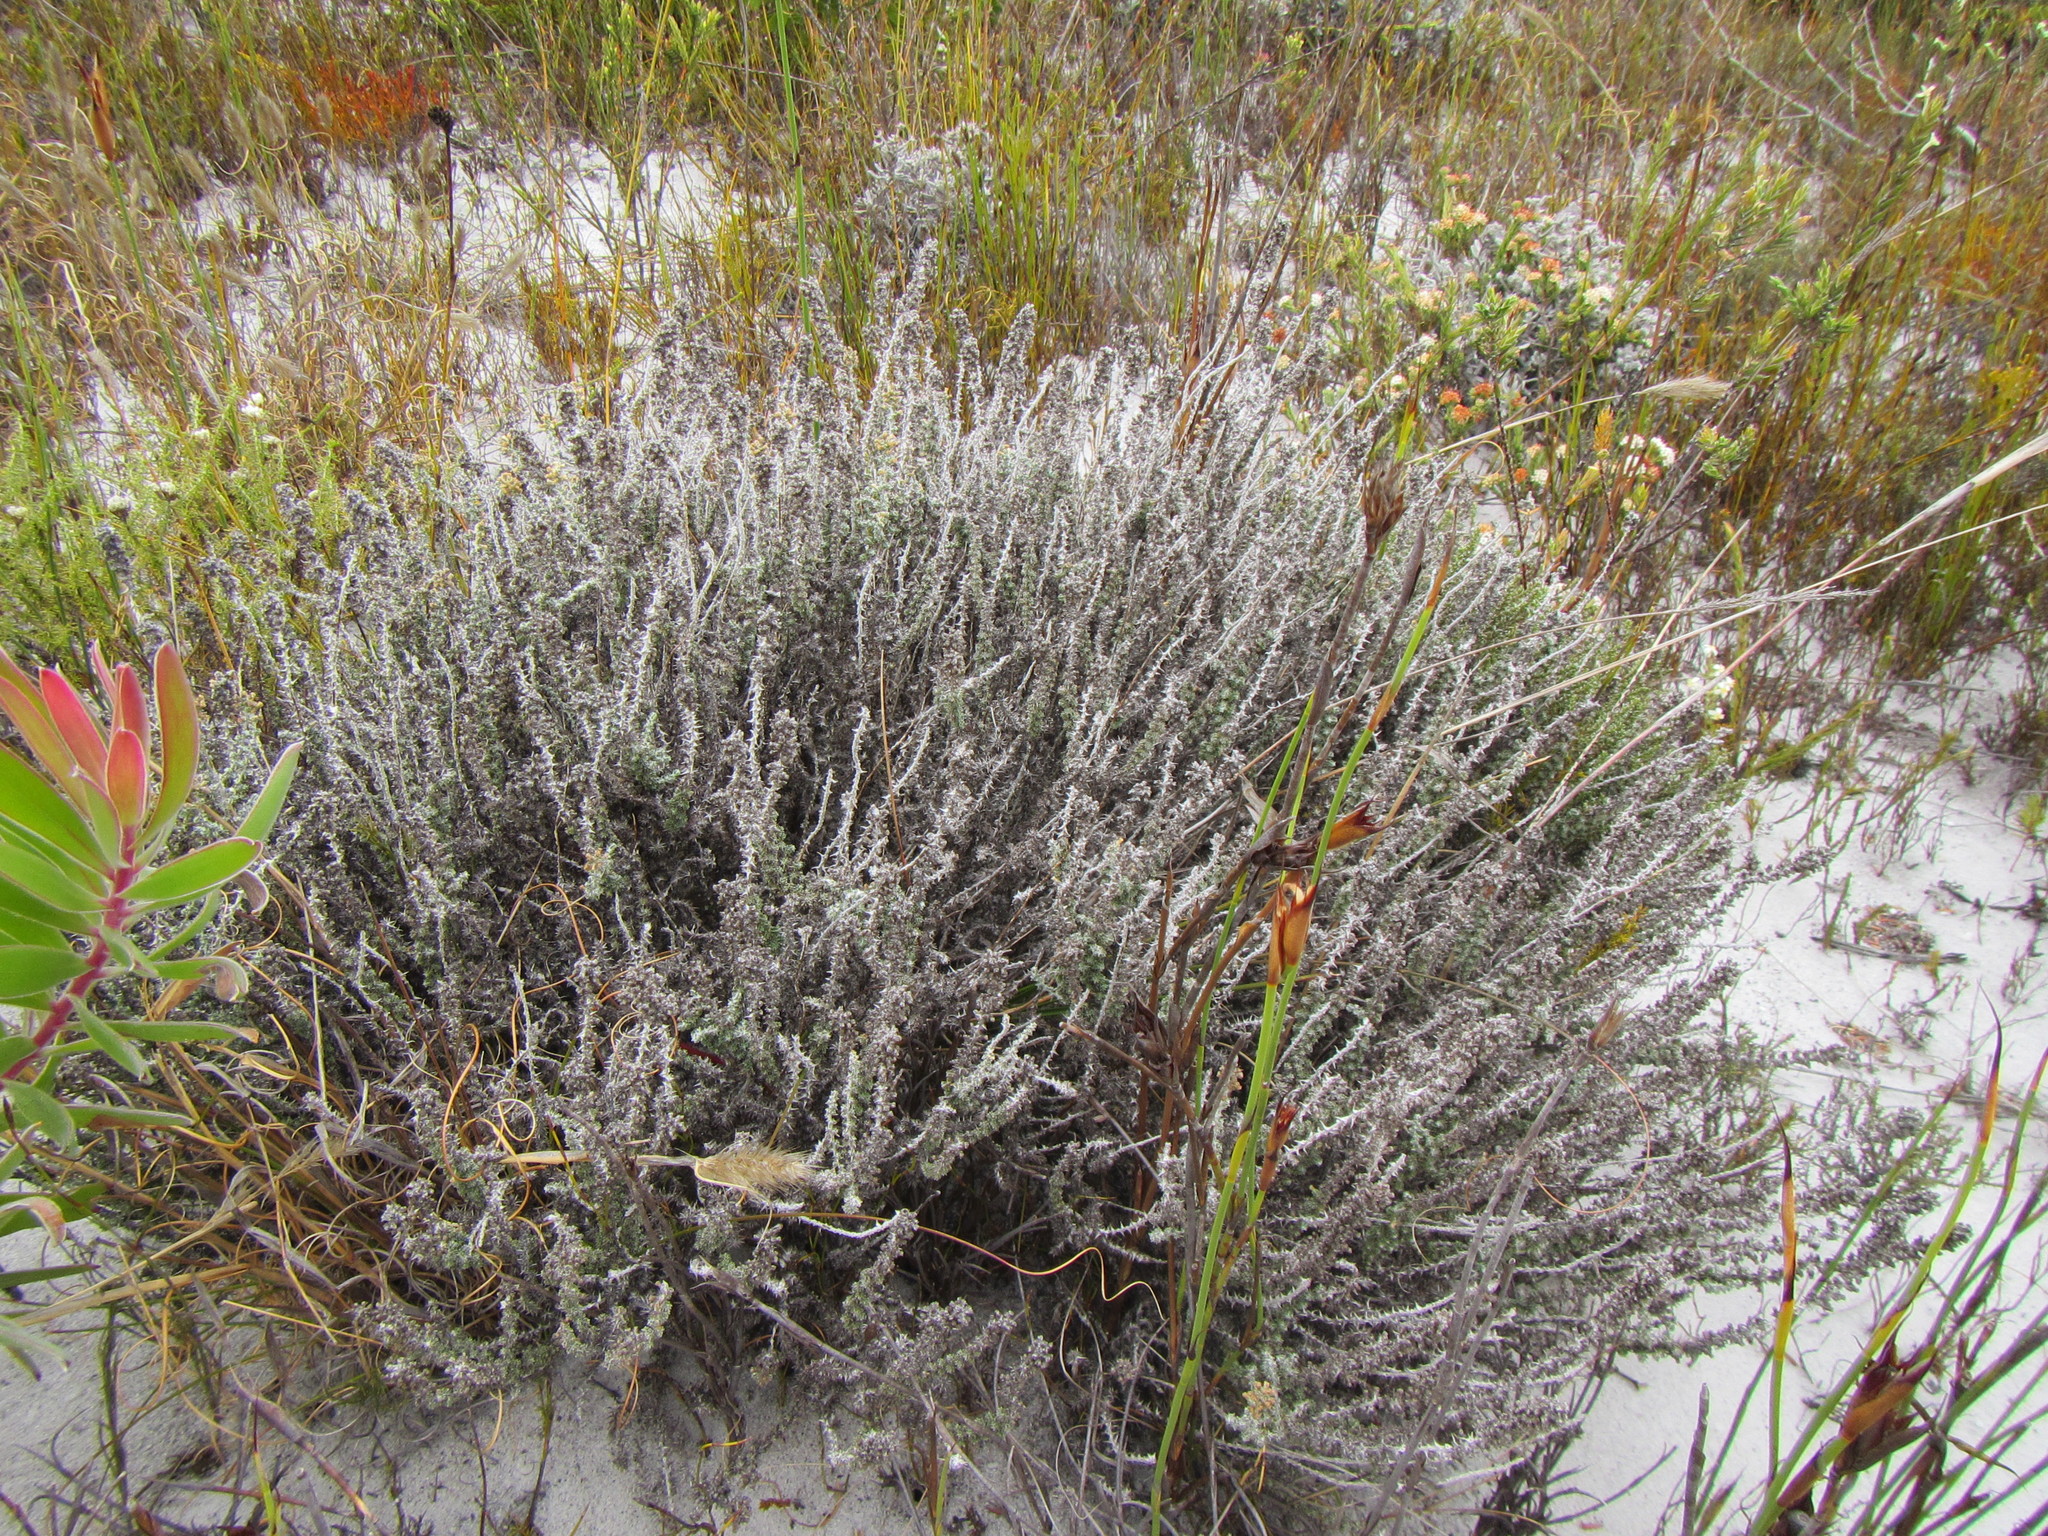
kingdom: Plantae
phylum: Tracheophyta
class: Magnoliopsida
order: Asterales
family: Asteraceae
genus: Ifloga
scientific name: Ifloga ambigua
